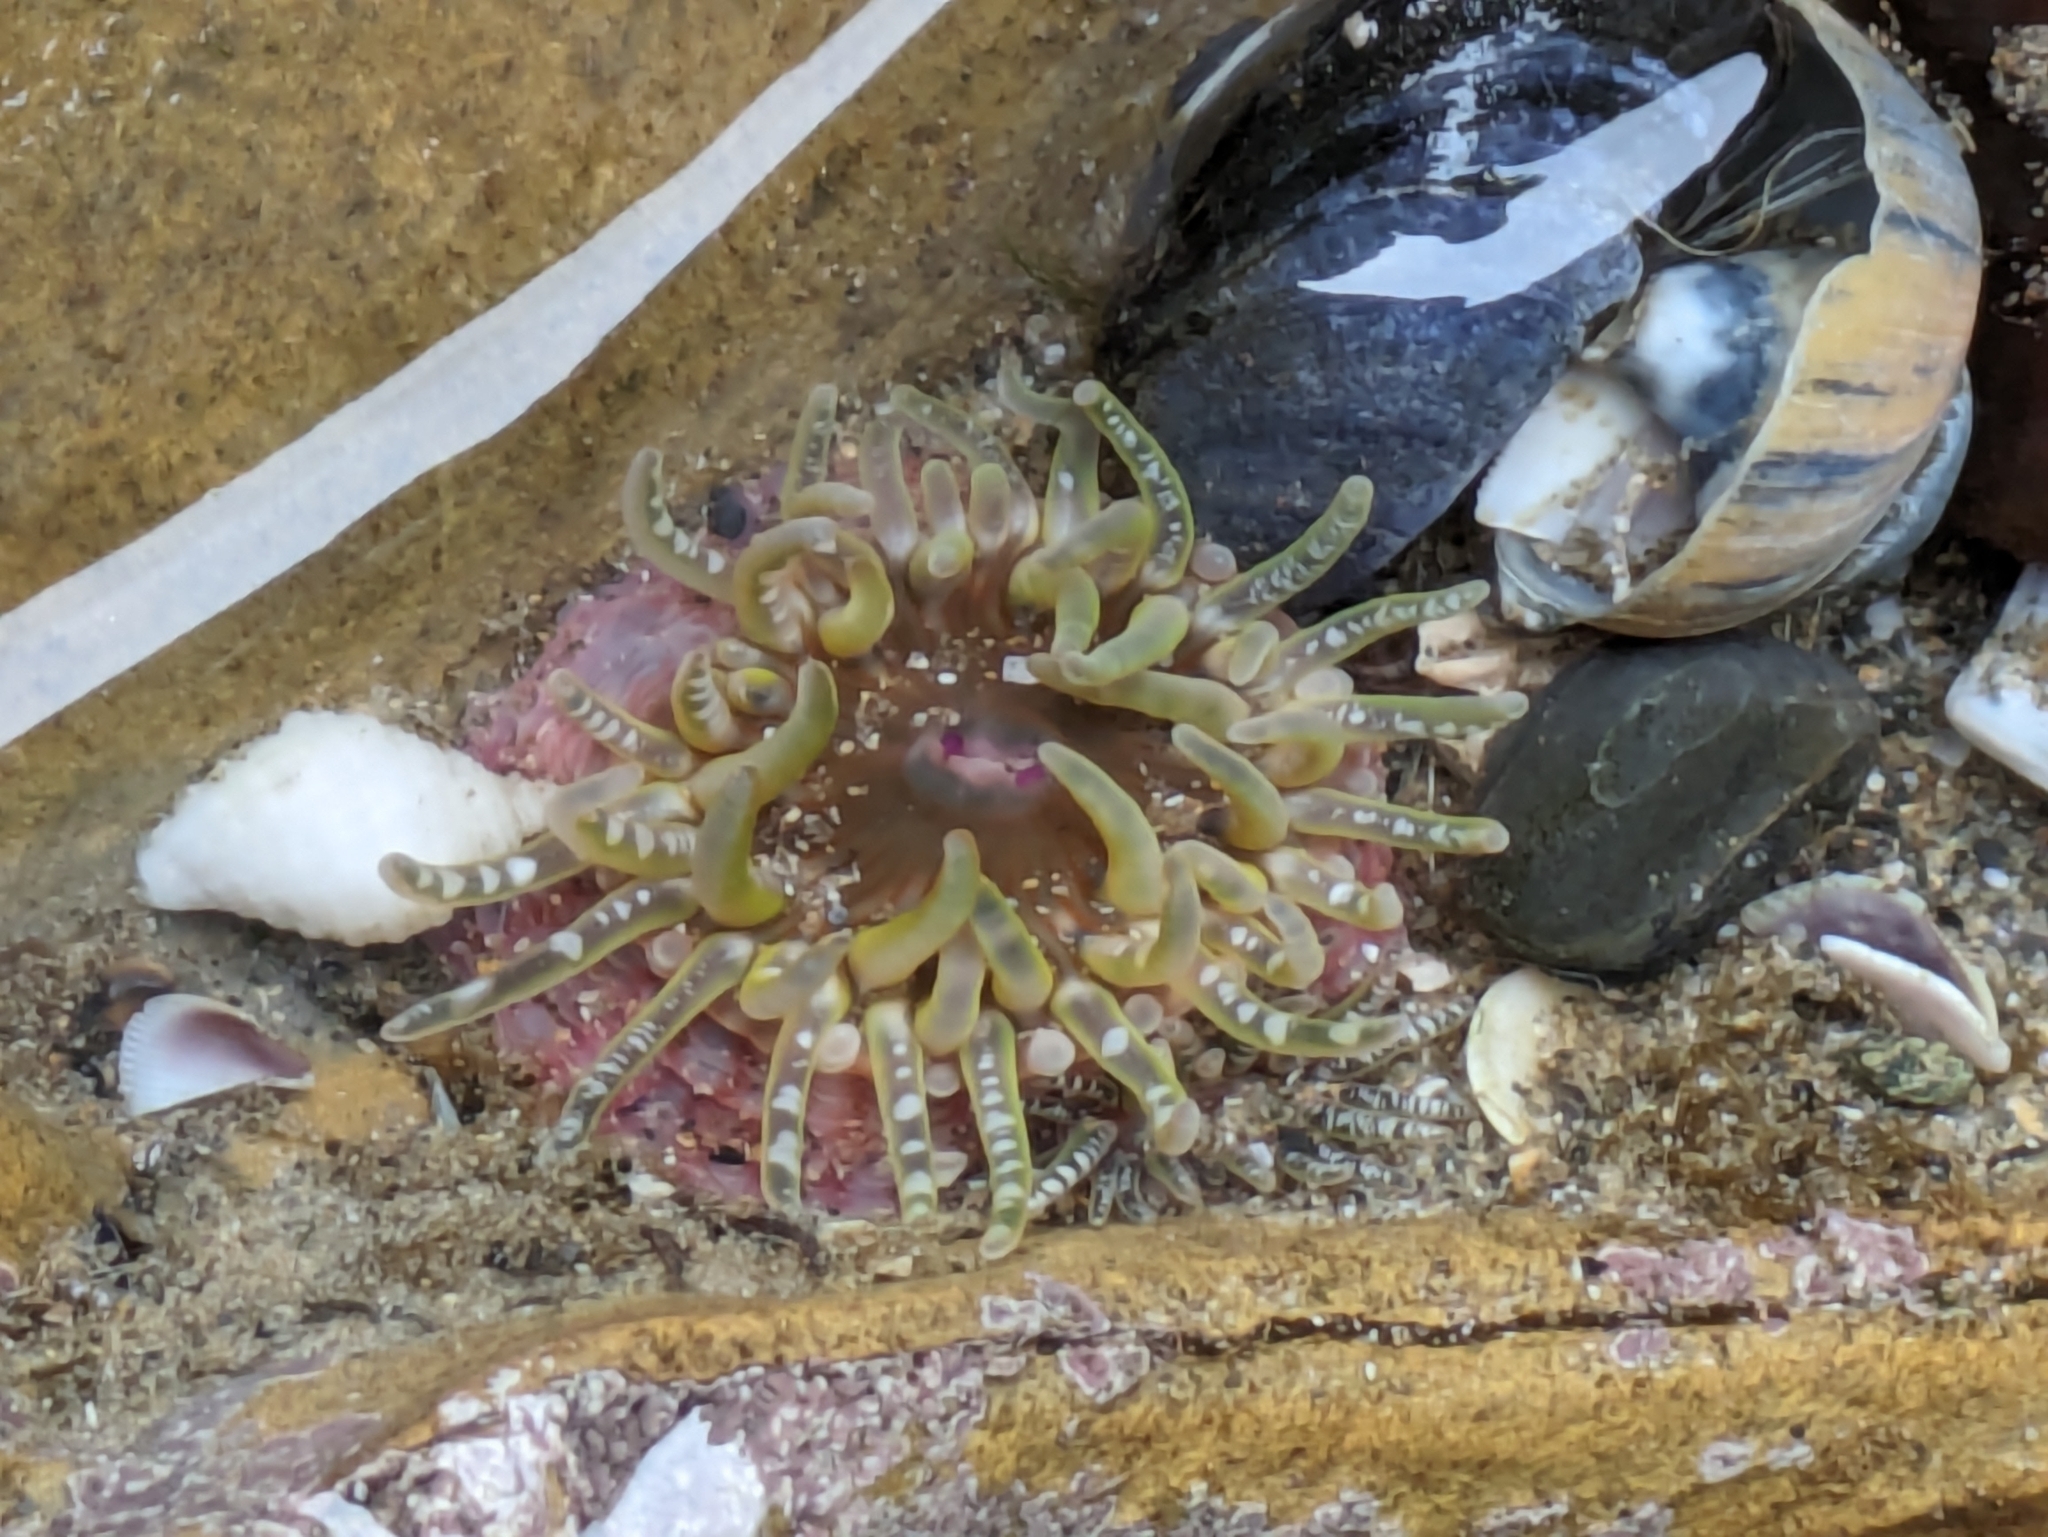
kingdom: Animalia
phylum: Cnidaria
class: Anthozoa
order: Actiniaria
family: Actiniidae
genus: Bunodactis
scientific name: Bunodactis verrucosa
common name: Gem anemone
